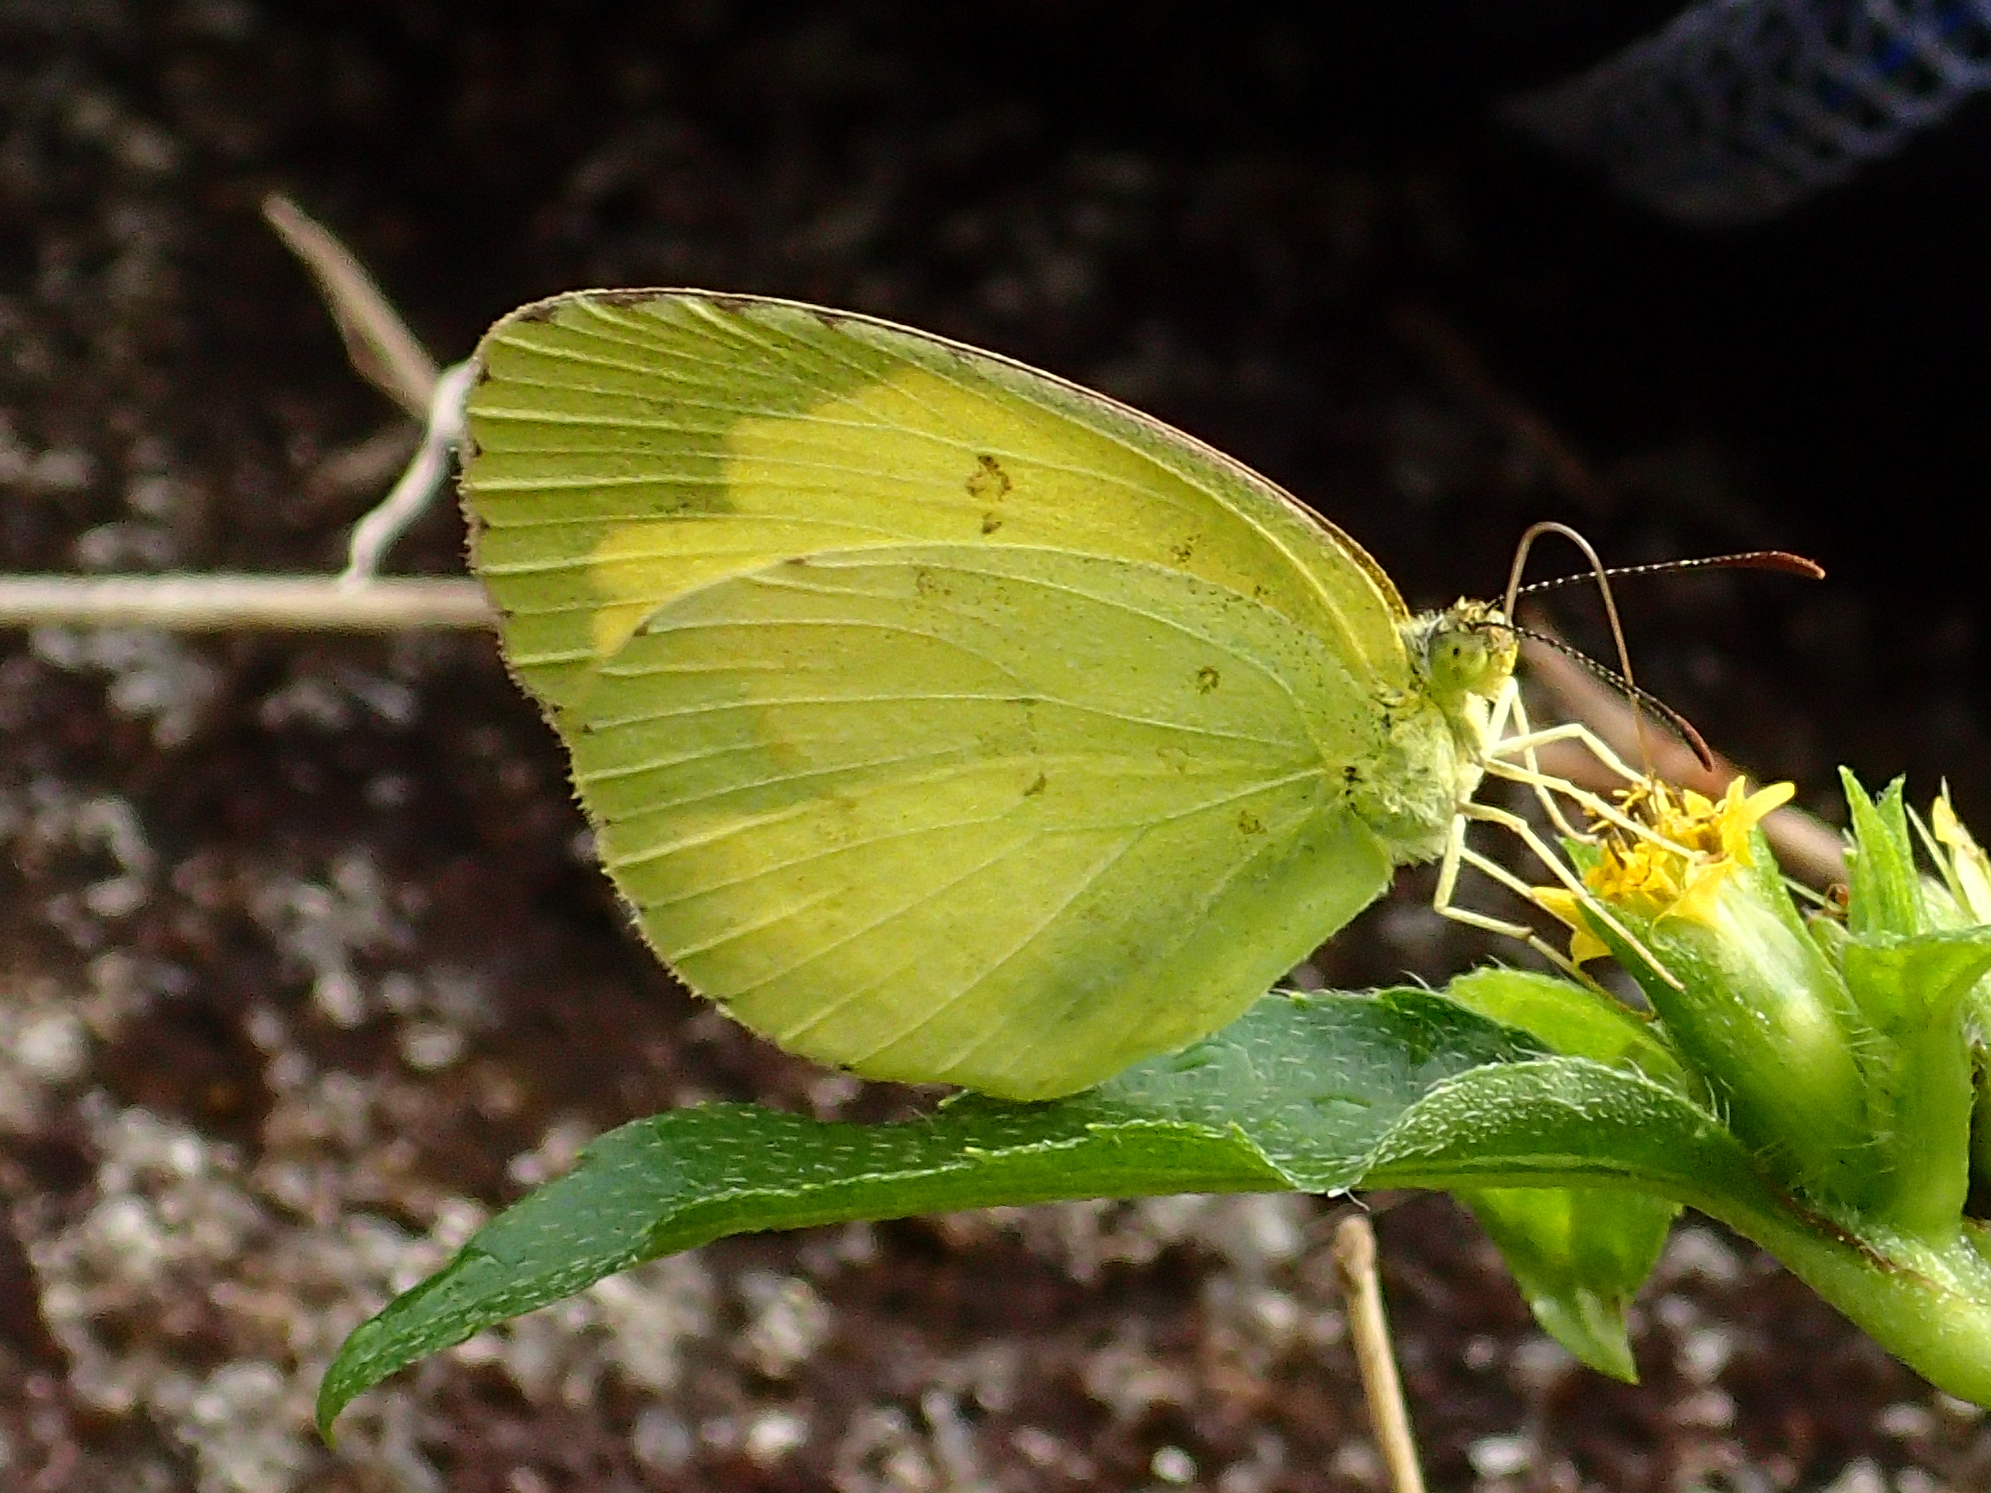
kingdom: Animalia
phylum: Arthropoda
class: Insecta
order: Lepidoptera
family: Pieridae
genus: Eurema
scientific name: Eurema hecabe
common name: Pale grass yellow
